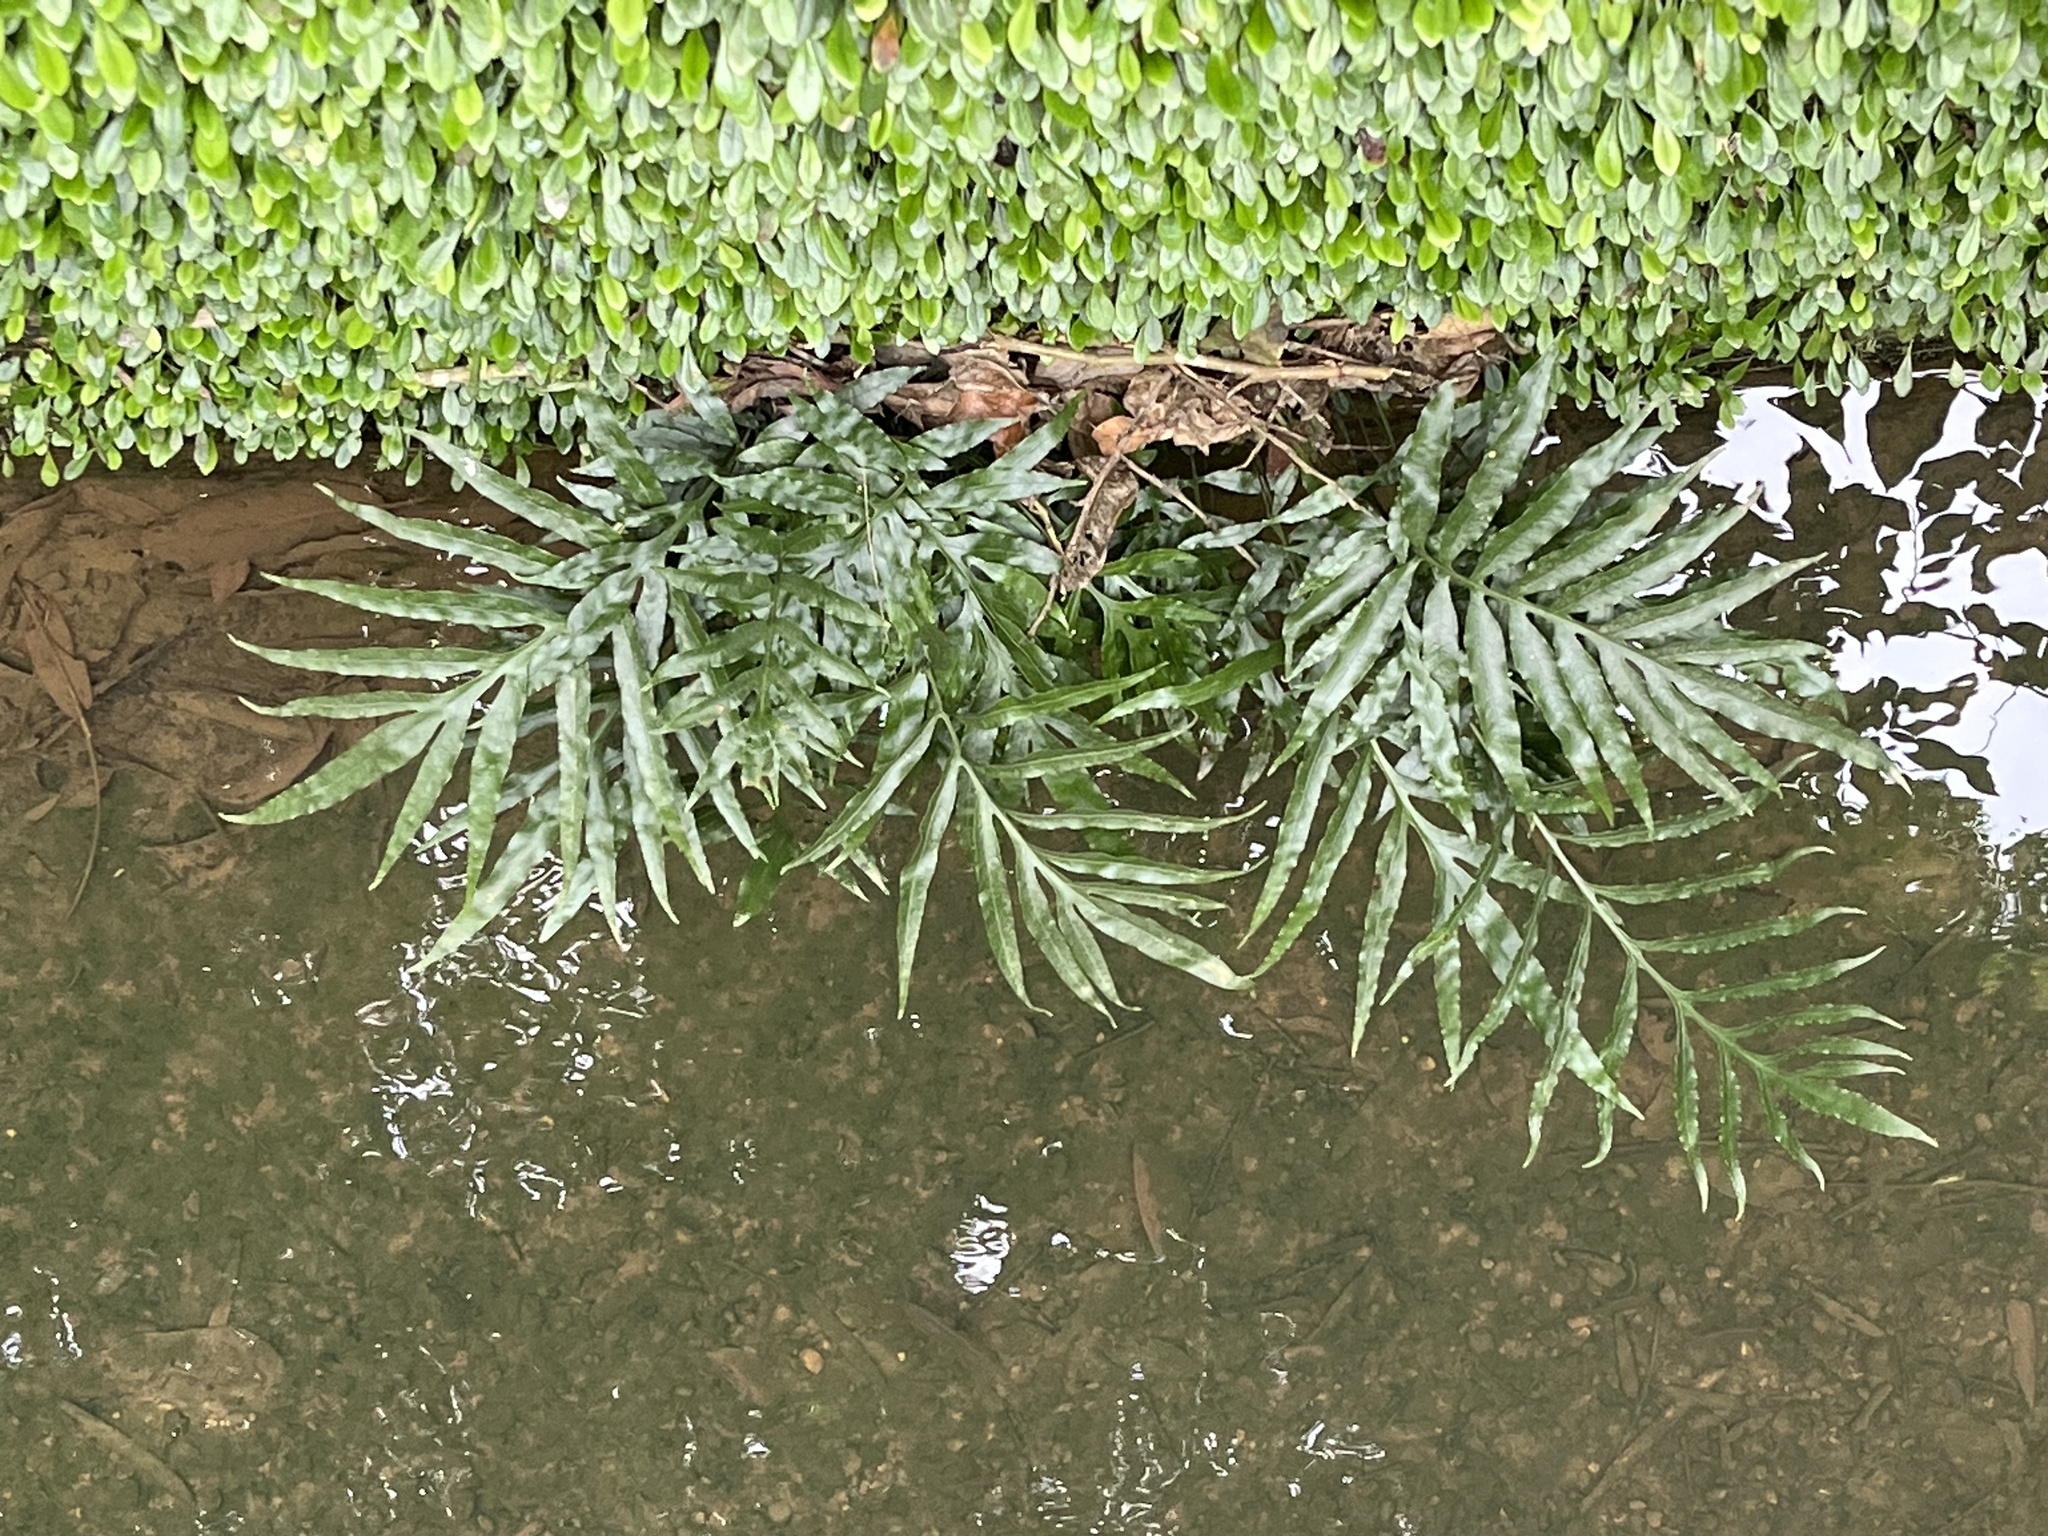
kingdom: Plantae
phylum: Tracheophyta
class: Polypodiopsida
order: Polypodiales
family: Polypodiaceae
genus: Leptochilus
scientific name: Leptochilus ellipticus
